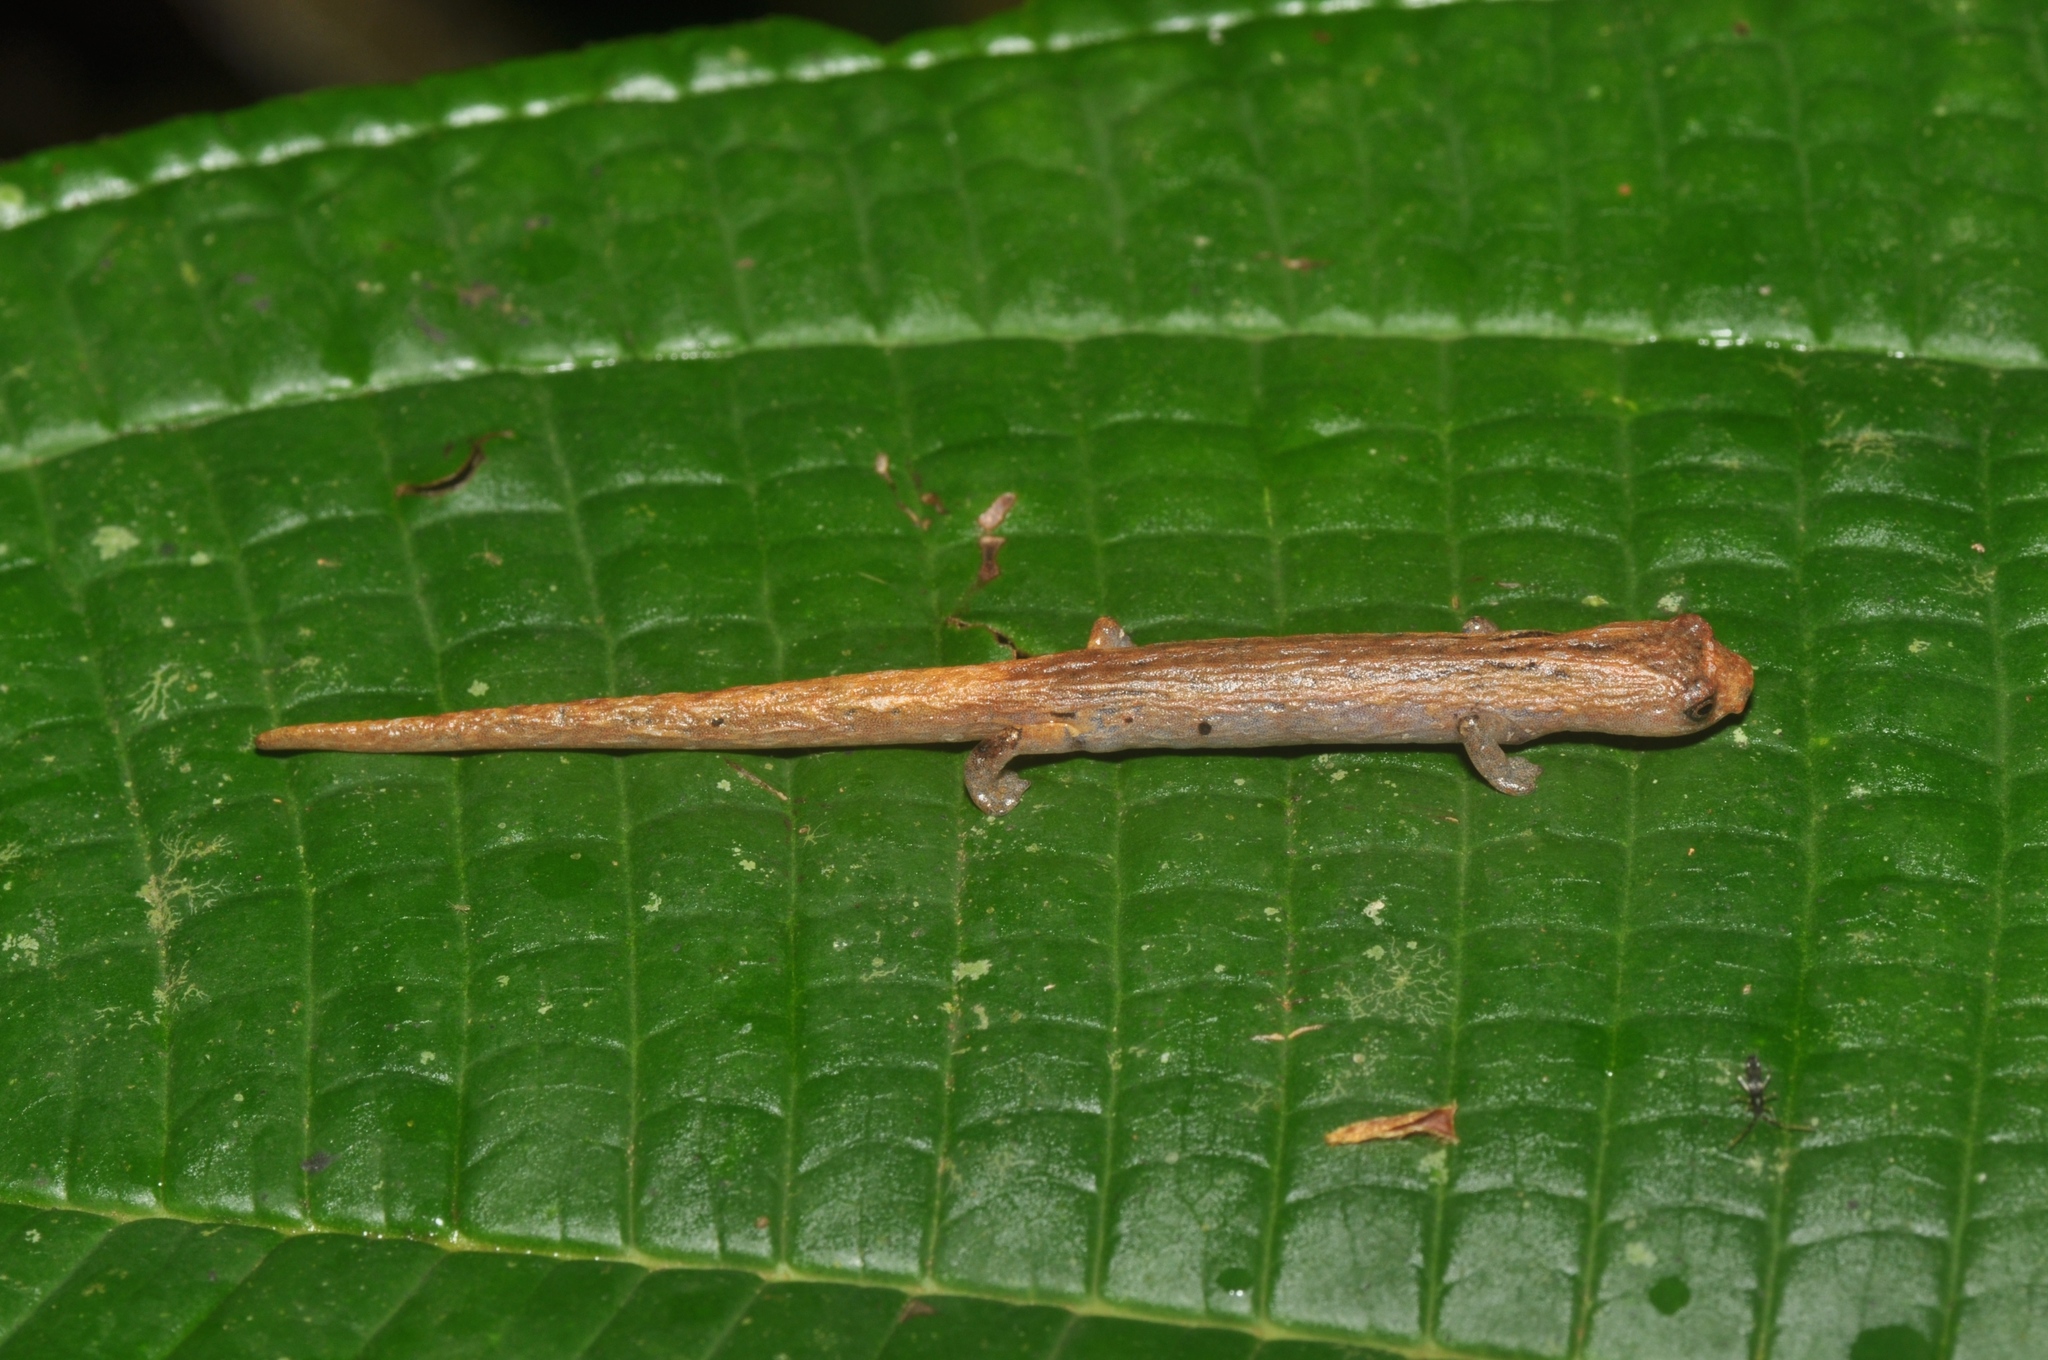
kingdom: Animalia
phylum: Chordata
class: Amphibia
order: Caudata
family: Plethodontidae
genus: Bolitoglossa
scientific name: Bolitoglossa altamazonica
